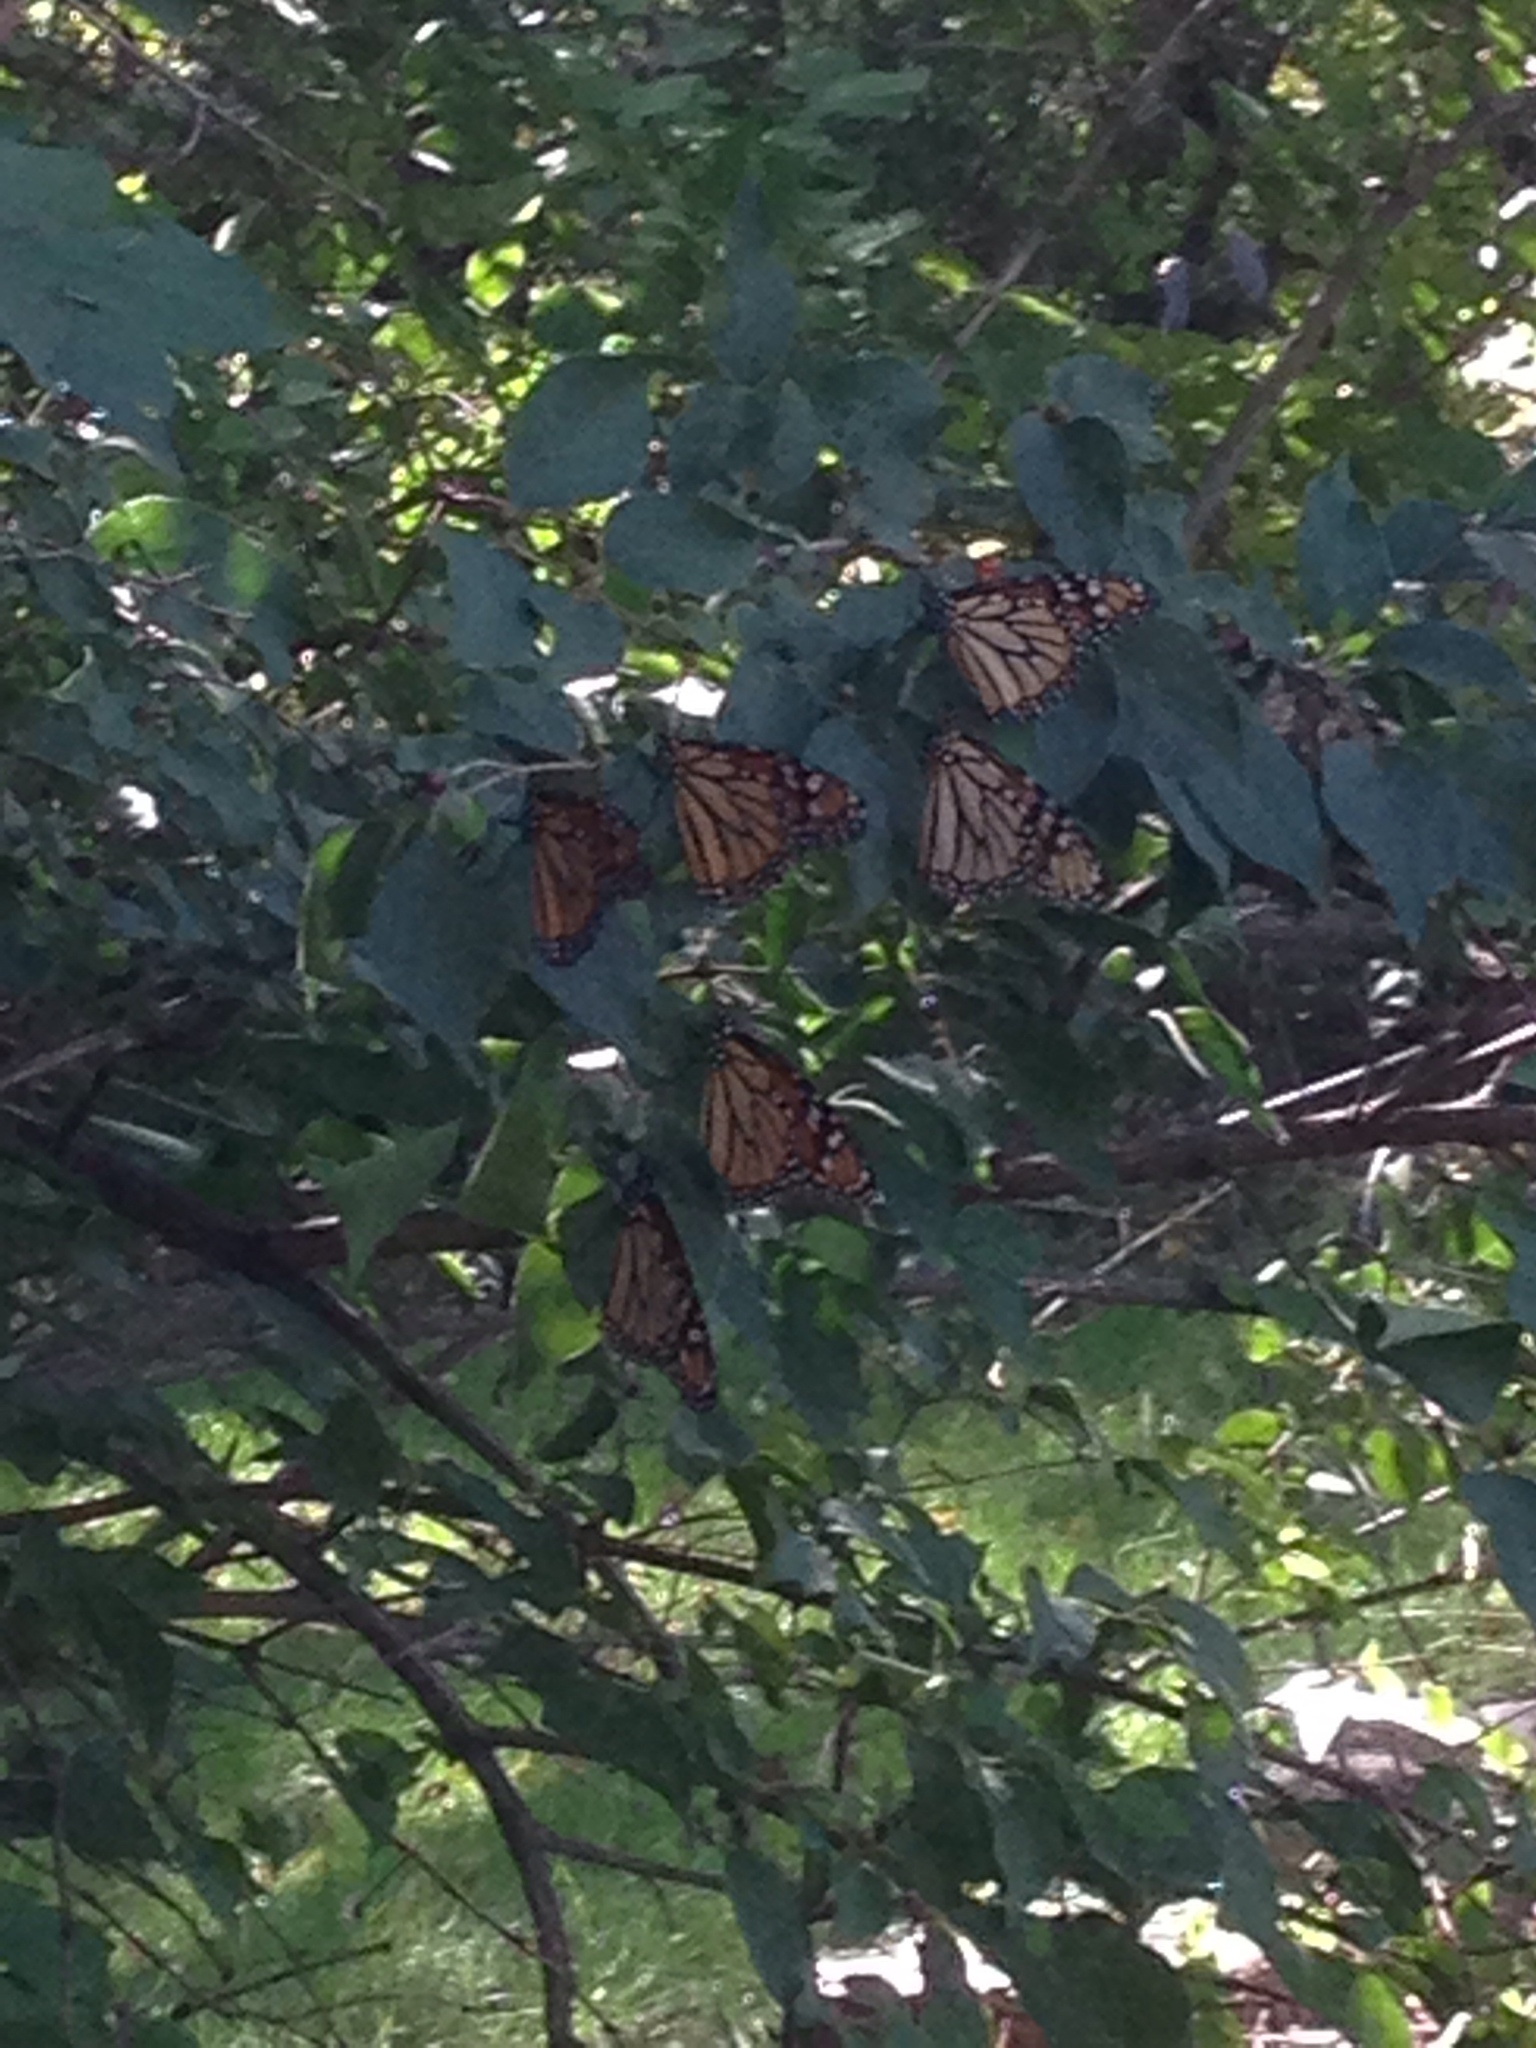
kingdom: Animalia
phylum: Arthropoda
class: Insecta
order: Lepidoptera
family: Nymphalidae
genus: Danaus
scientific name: Danaus plexippus
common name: Monarch
